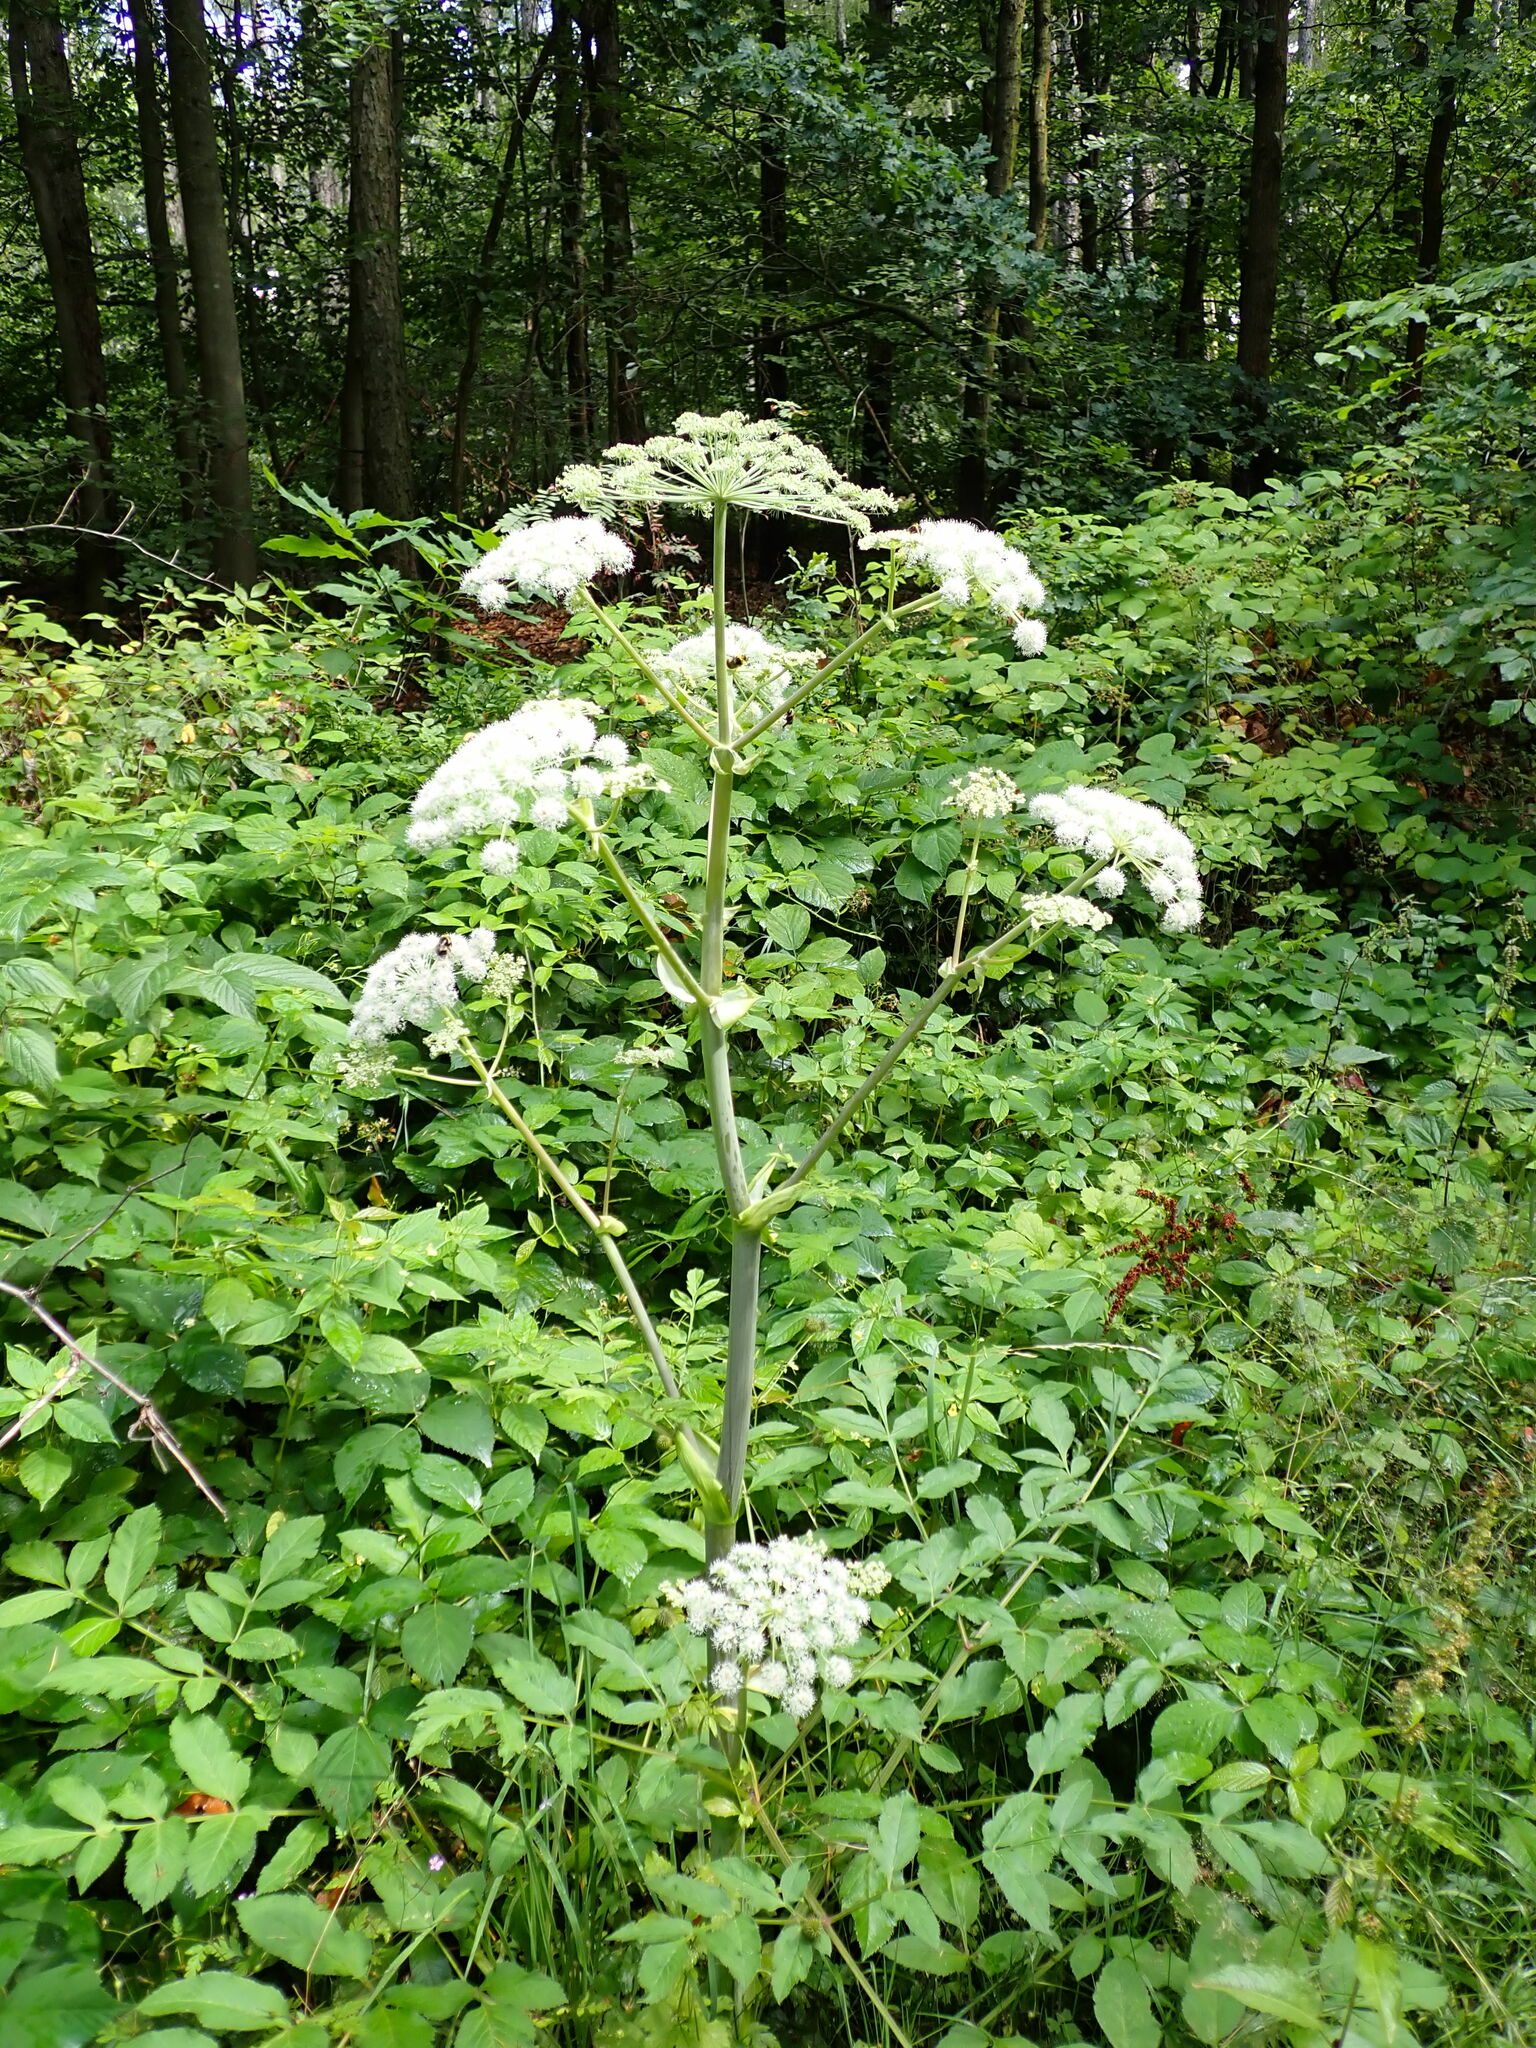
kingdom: Plantae
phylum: Tracheophyta
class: Magnoliopsida
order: Apiales
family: Apiaceae
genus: Angelica
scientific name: Angelica sylvestris
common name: Wild angelica
